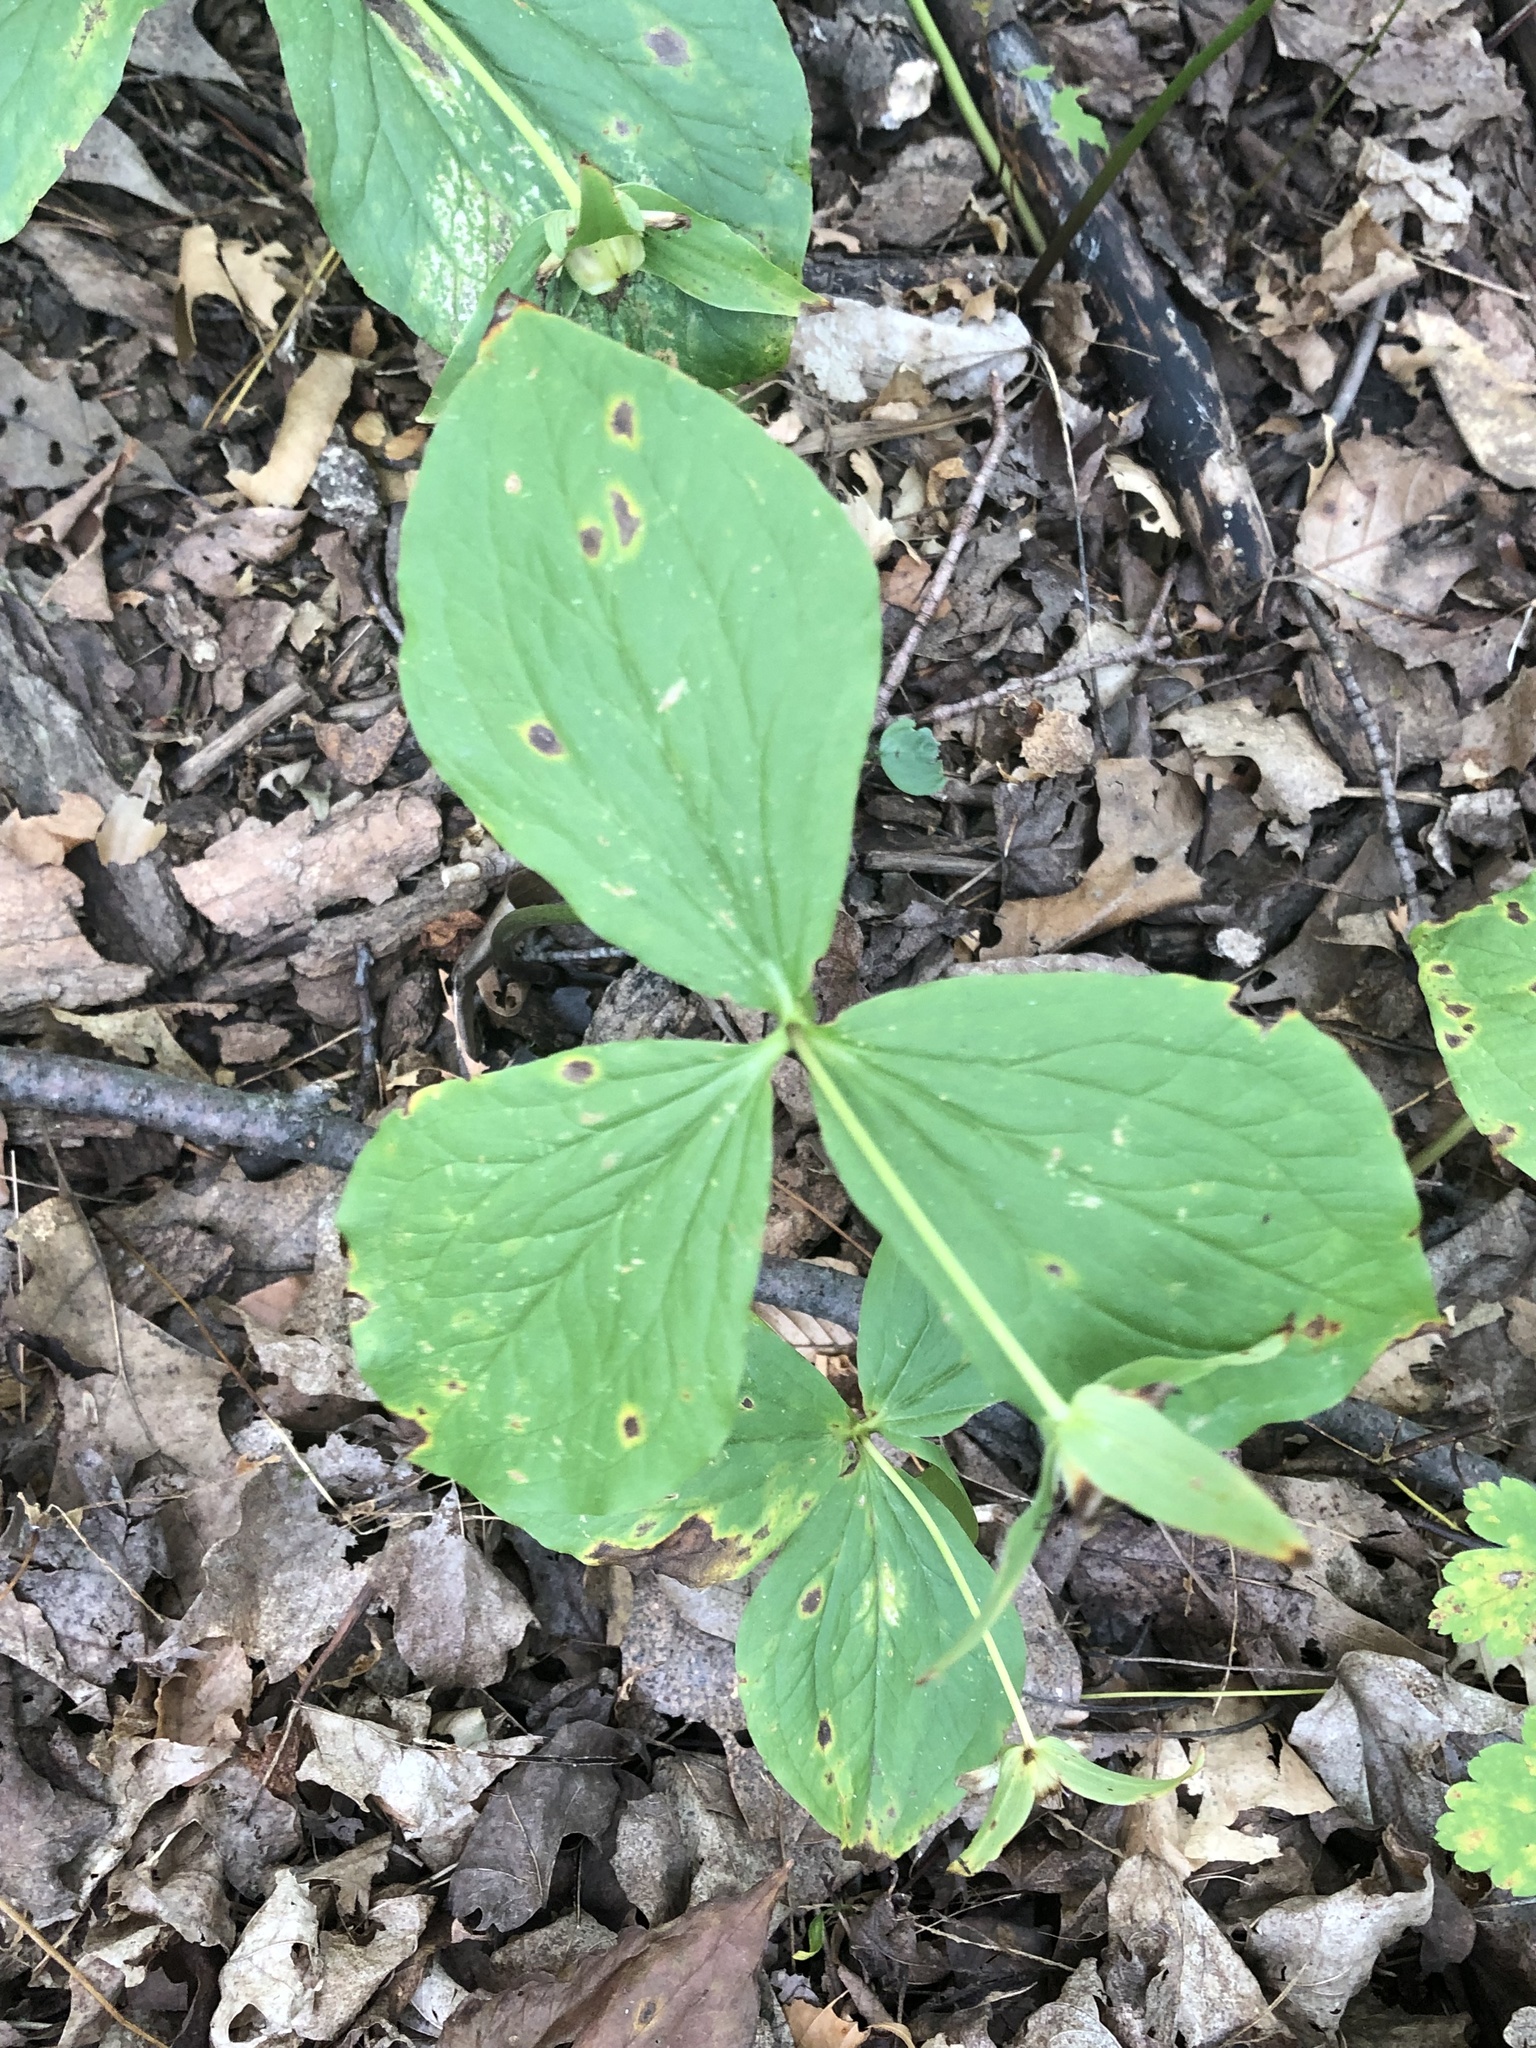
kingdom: Plantae
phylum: Tracheophyta
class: Liliopsida
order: Liliales
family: Melanthiaceae
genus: Trillium
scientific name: Trillium grandiflorum
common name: Great white trillium
